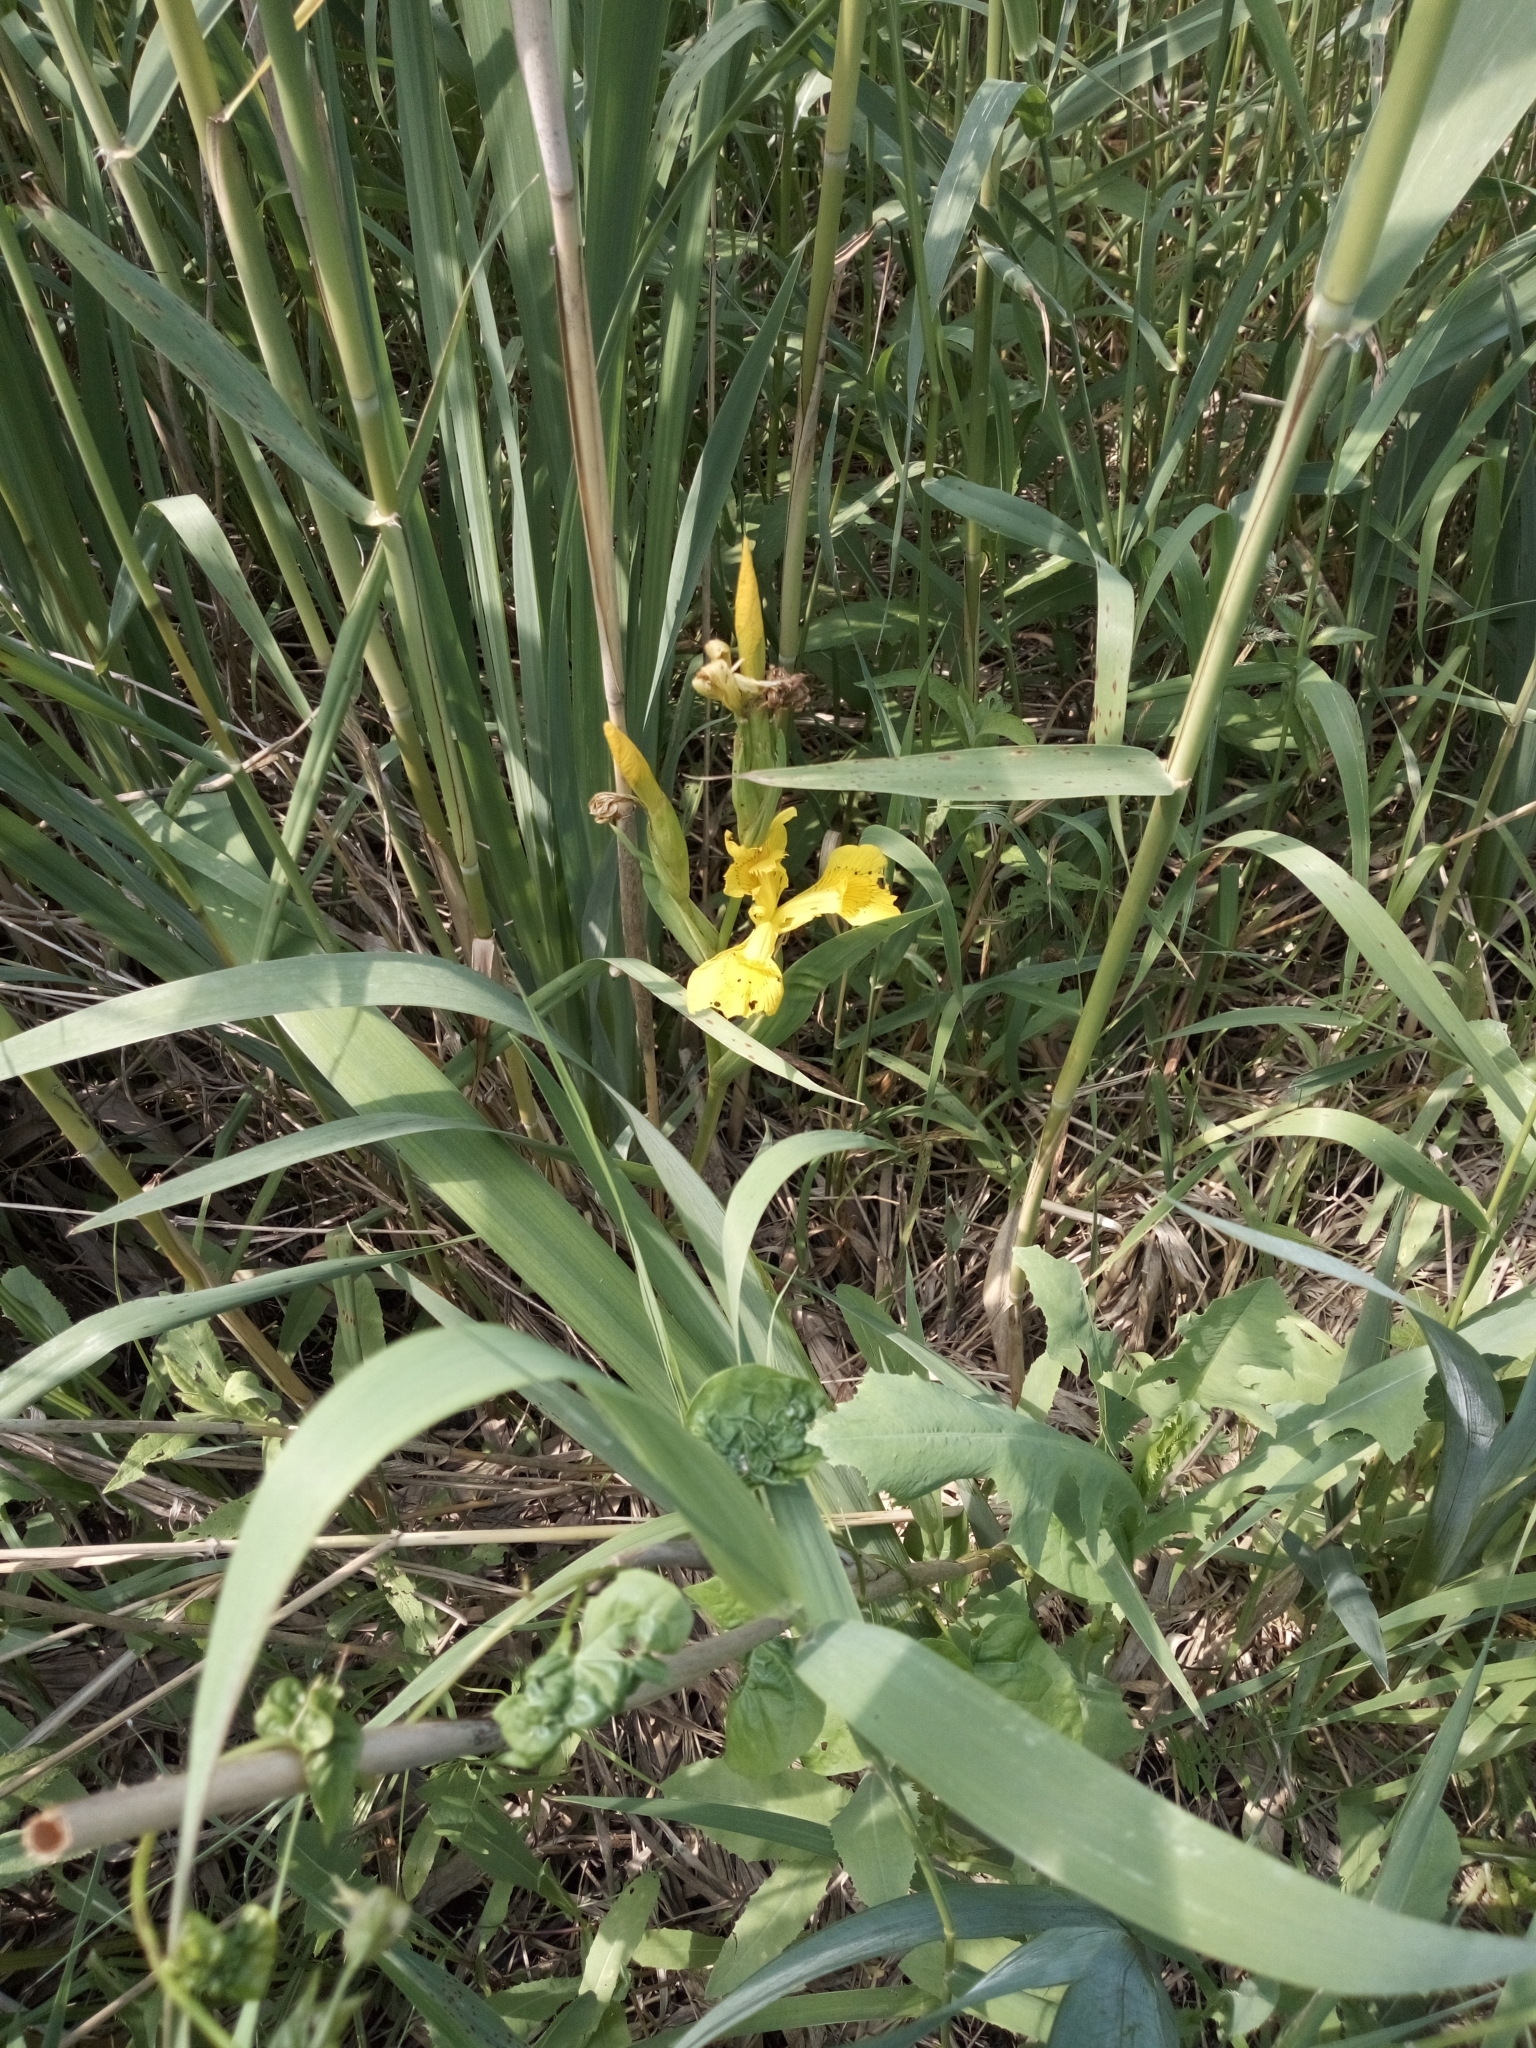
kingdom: Plantae
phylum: Tracheophyta
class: Liliopsida
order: Asparagales
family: Iridaceae
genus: Iris
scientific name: Iris pseudacorus
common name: Yellow flag
